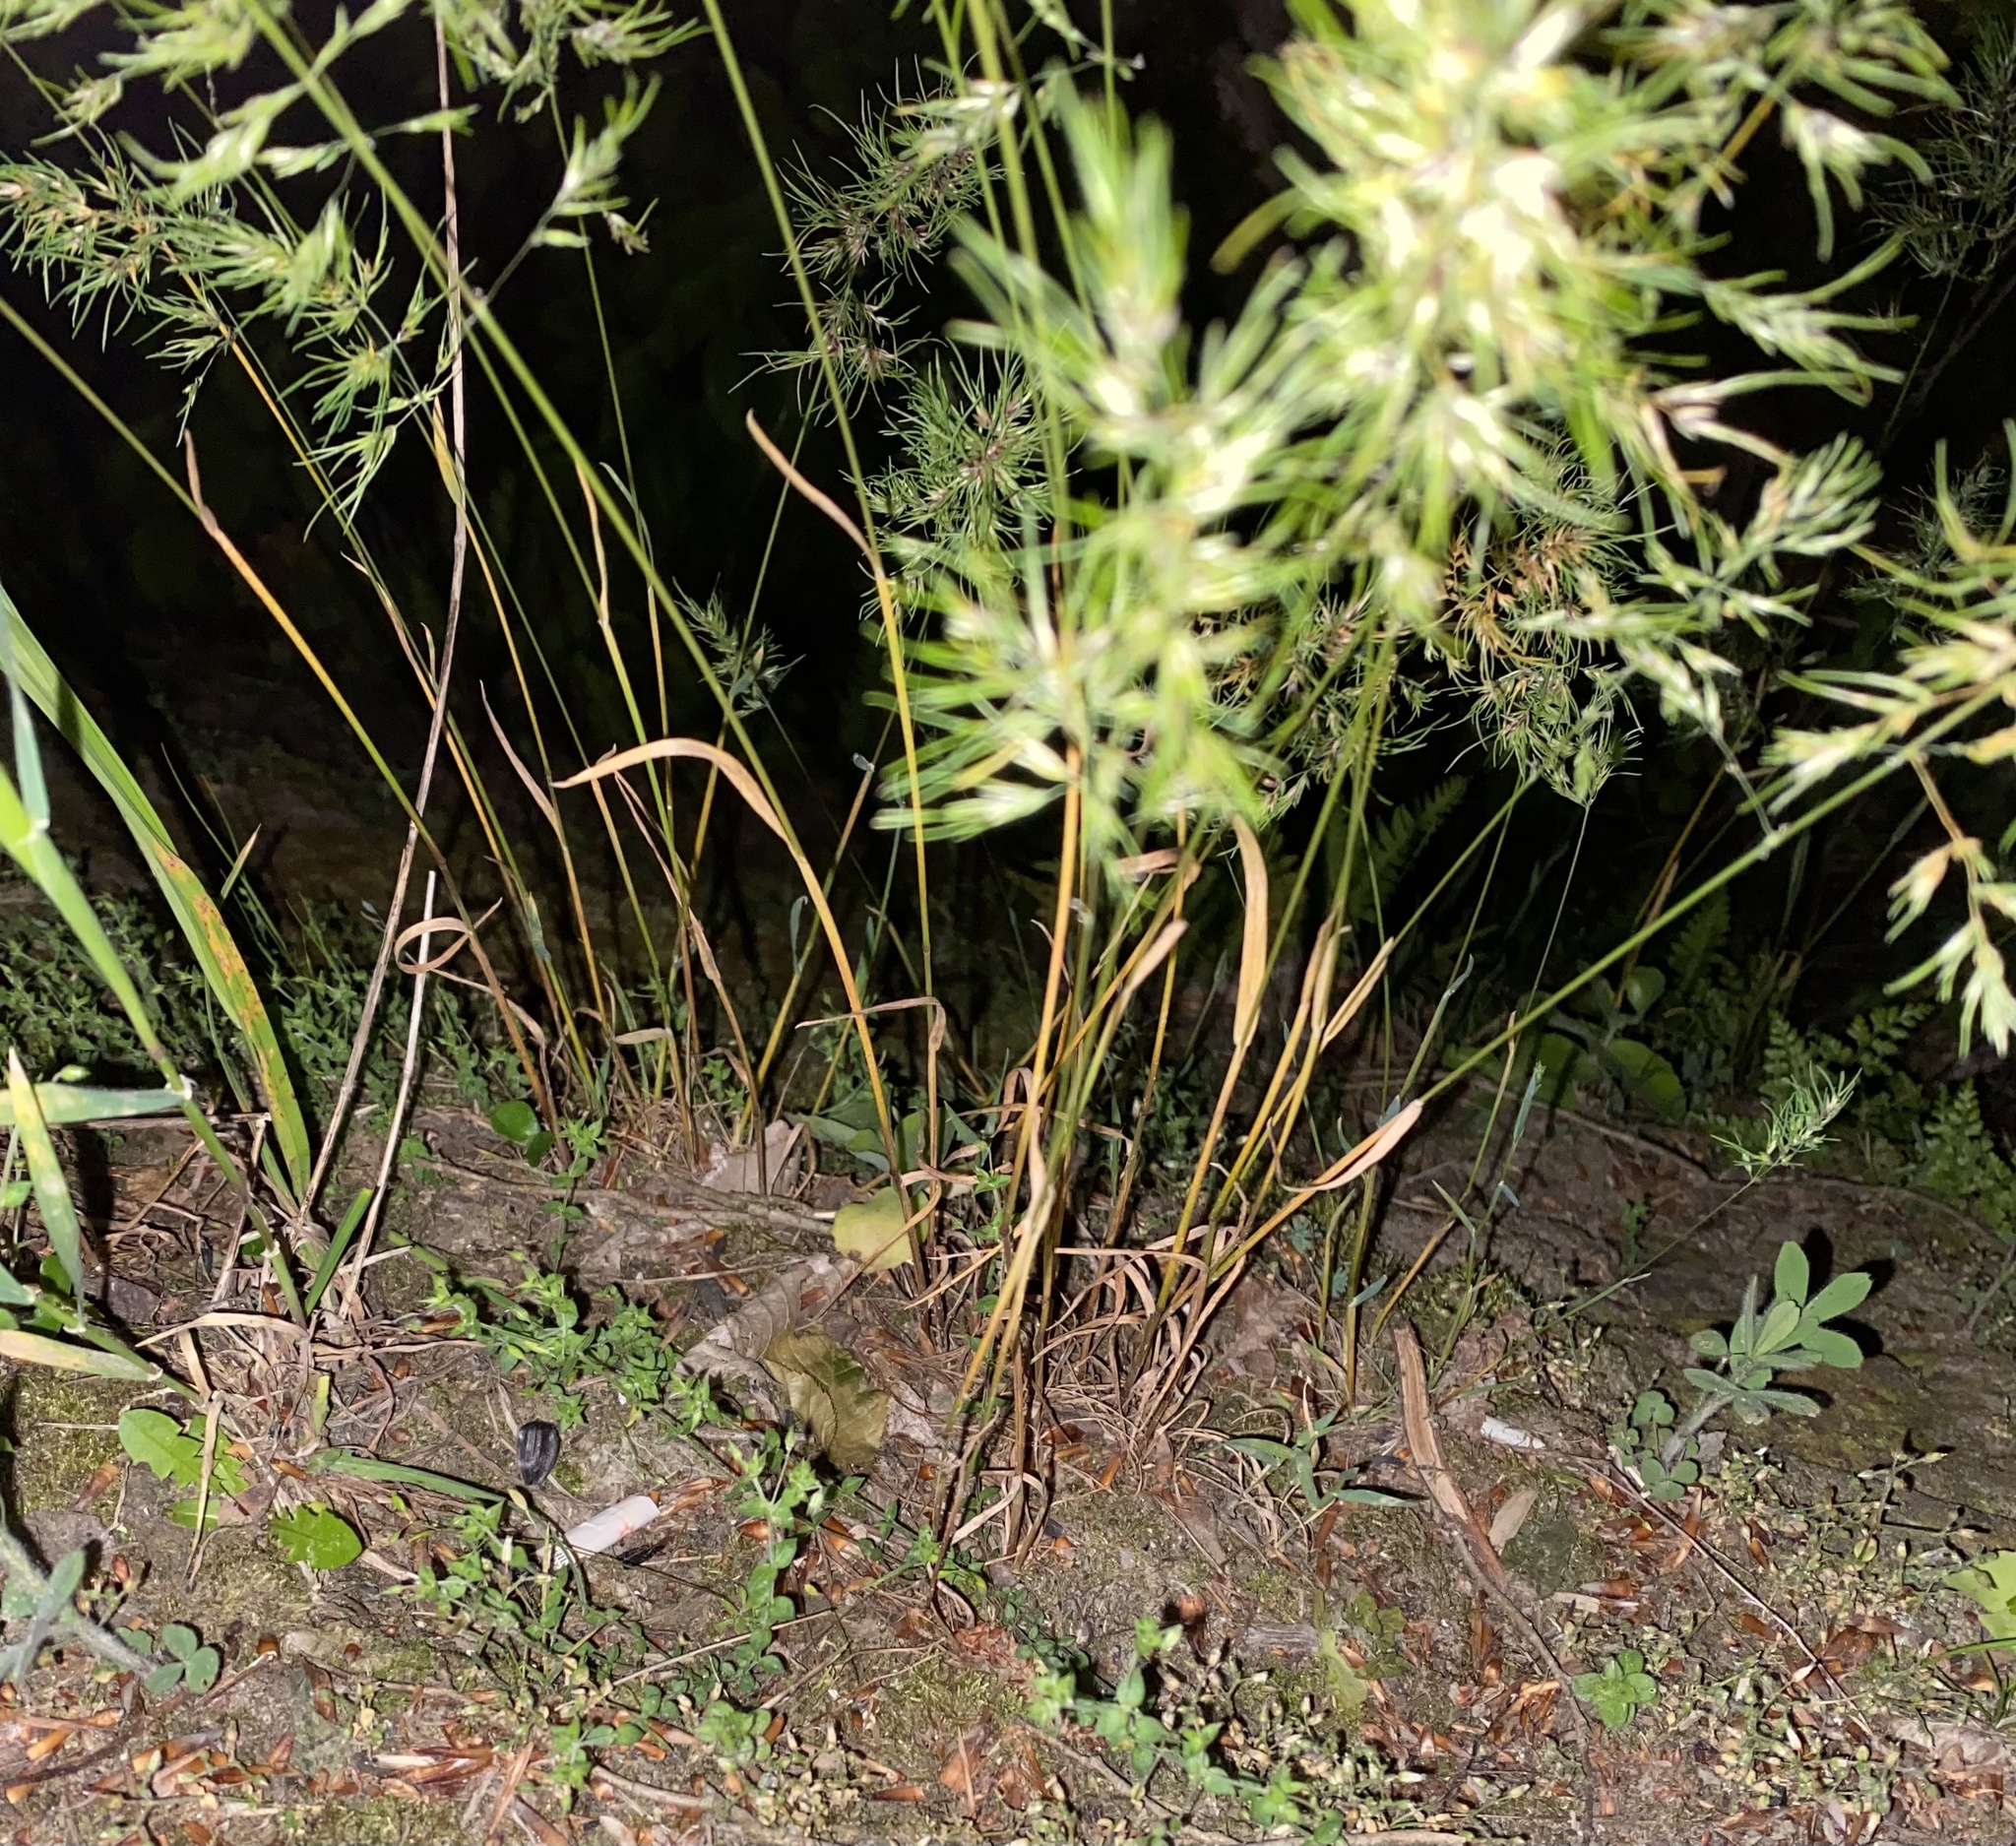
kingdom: Plantae
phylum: Tracheophyta
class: Liliopsida
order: Poales
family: Poaceae
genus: Poa
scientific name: Poa bulbosa
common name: Bulbous bluegrass
